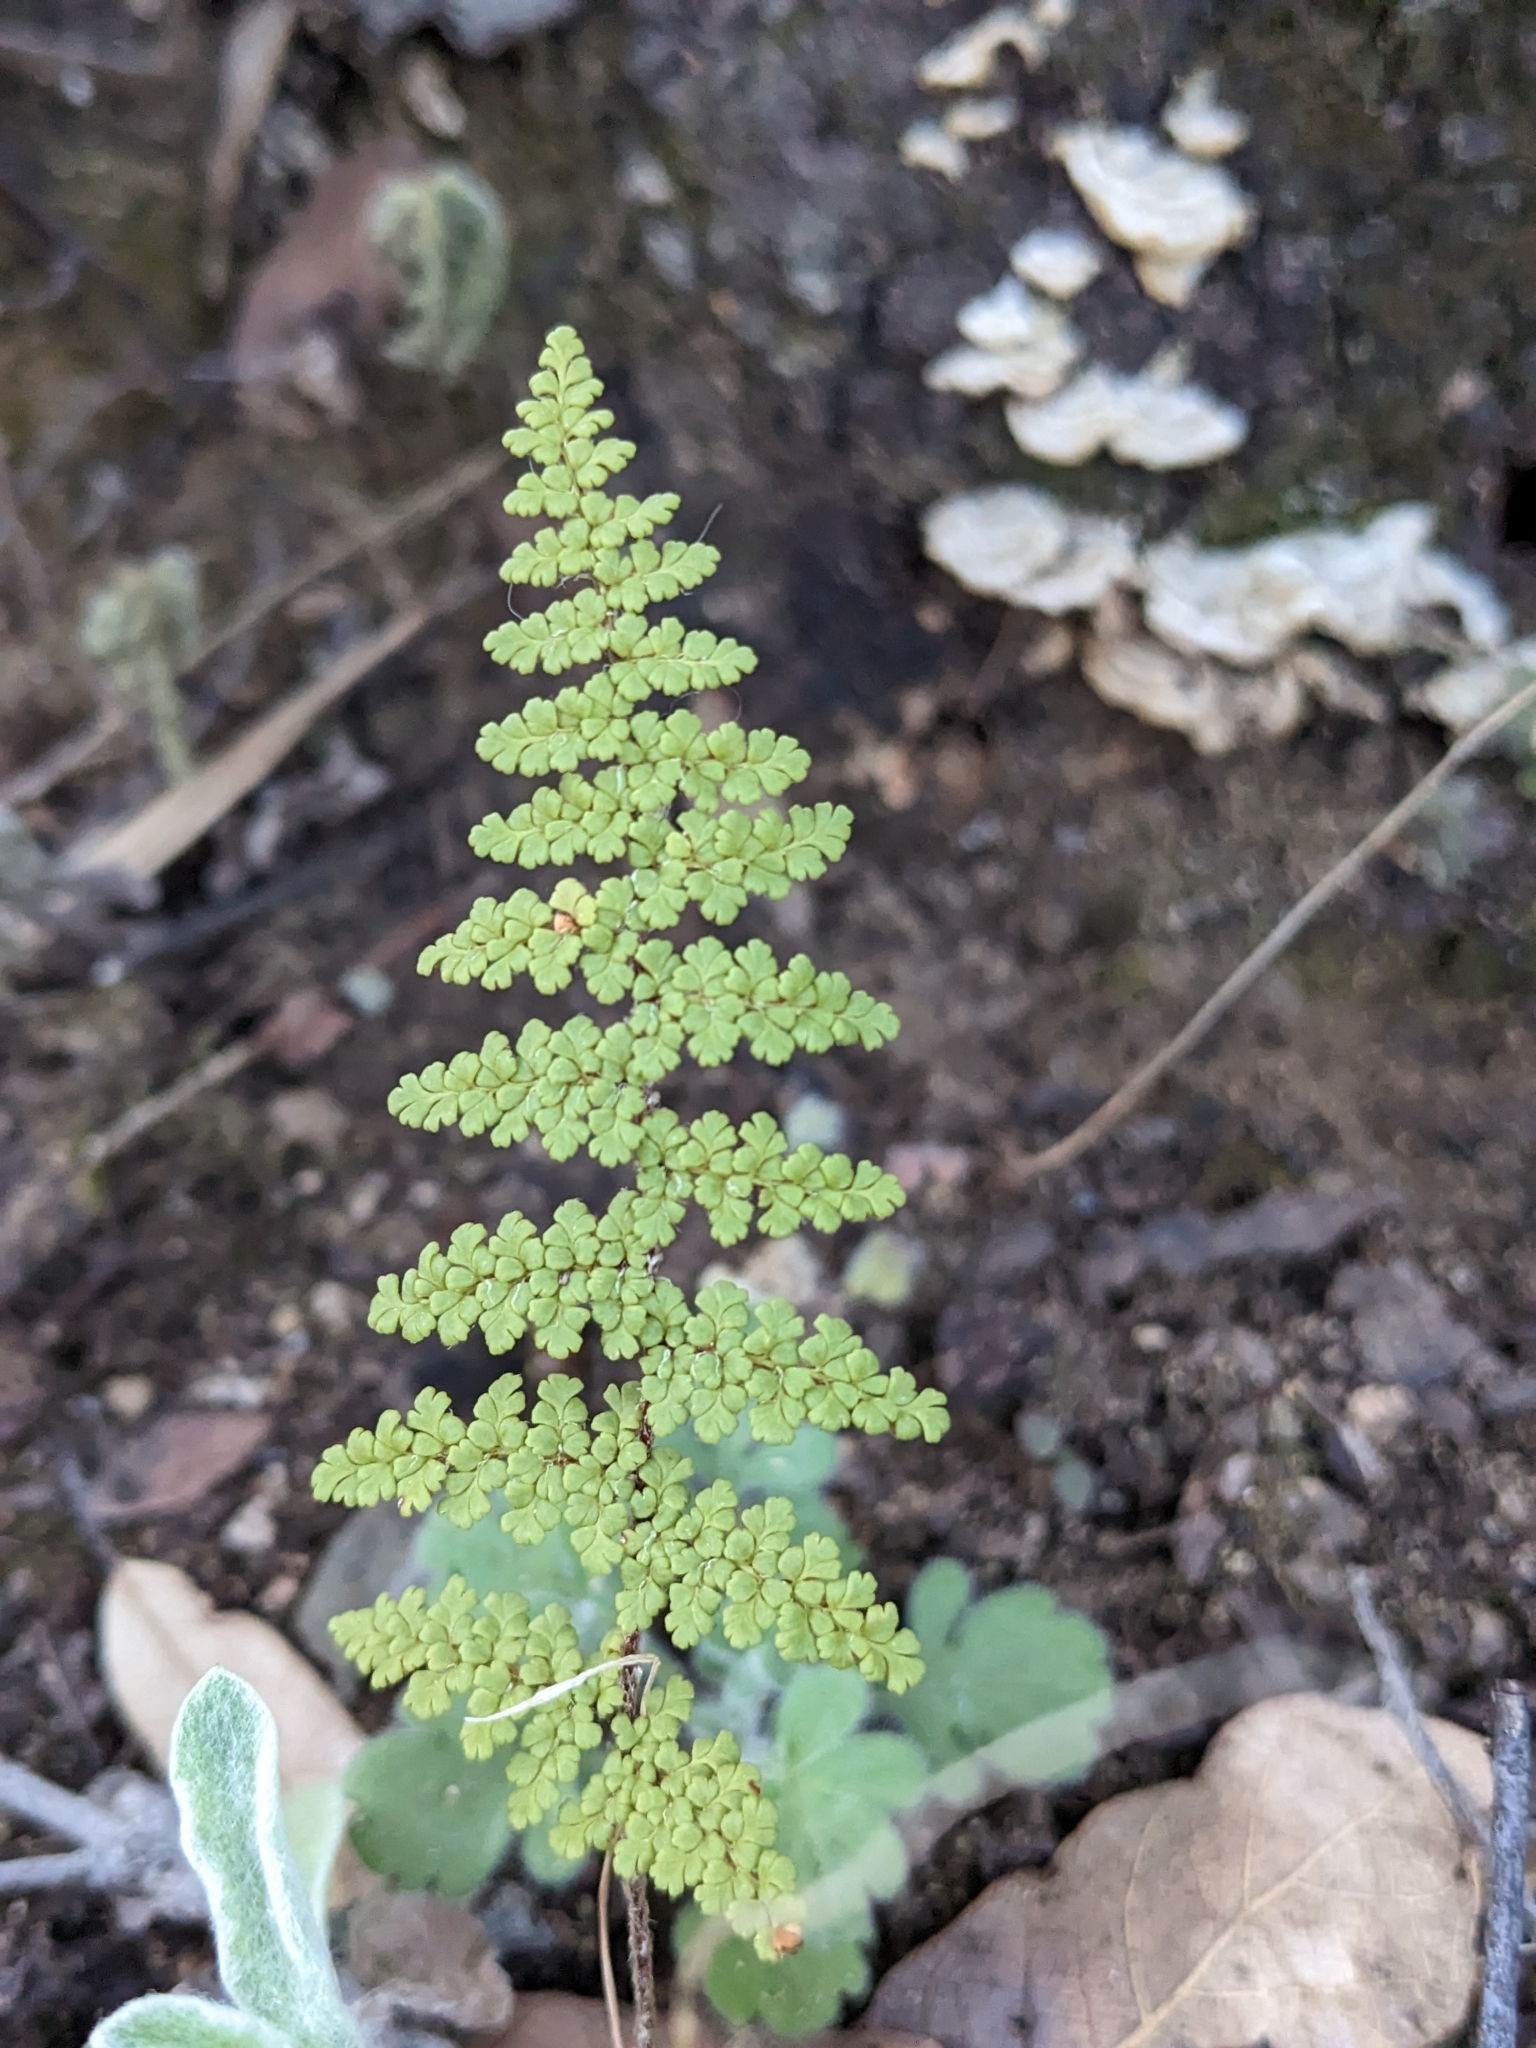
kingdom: Plantae
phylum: Tracheophyta
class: Polypodiopsida
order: Polypodiales
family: Pteridaceae
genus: Myriopteris
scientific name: Myriopteris fendleri
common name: Fendler's lip fern
